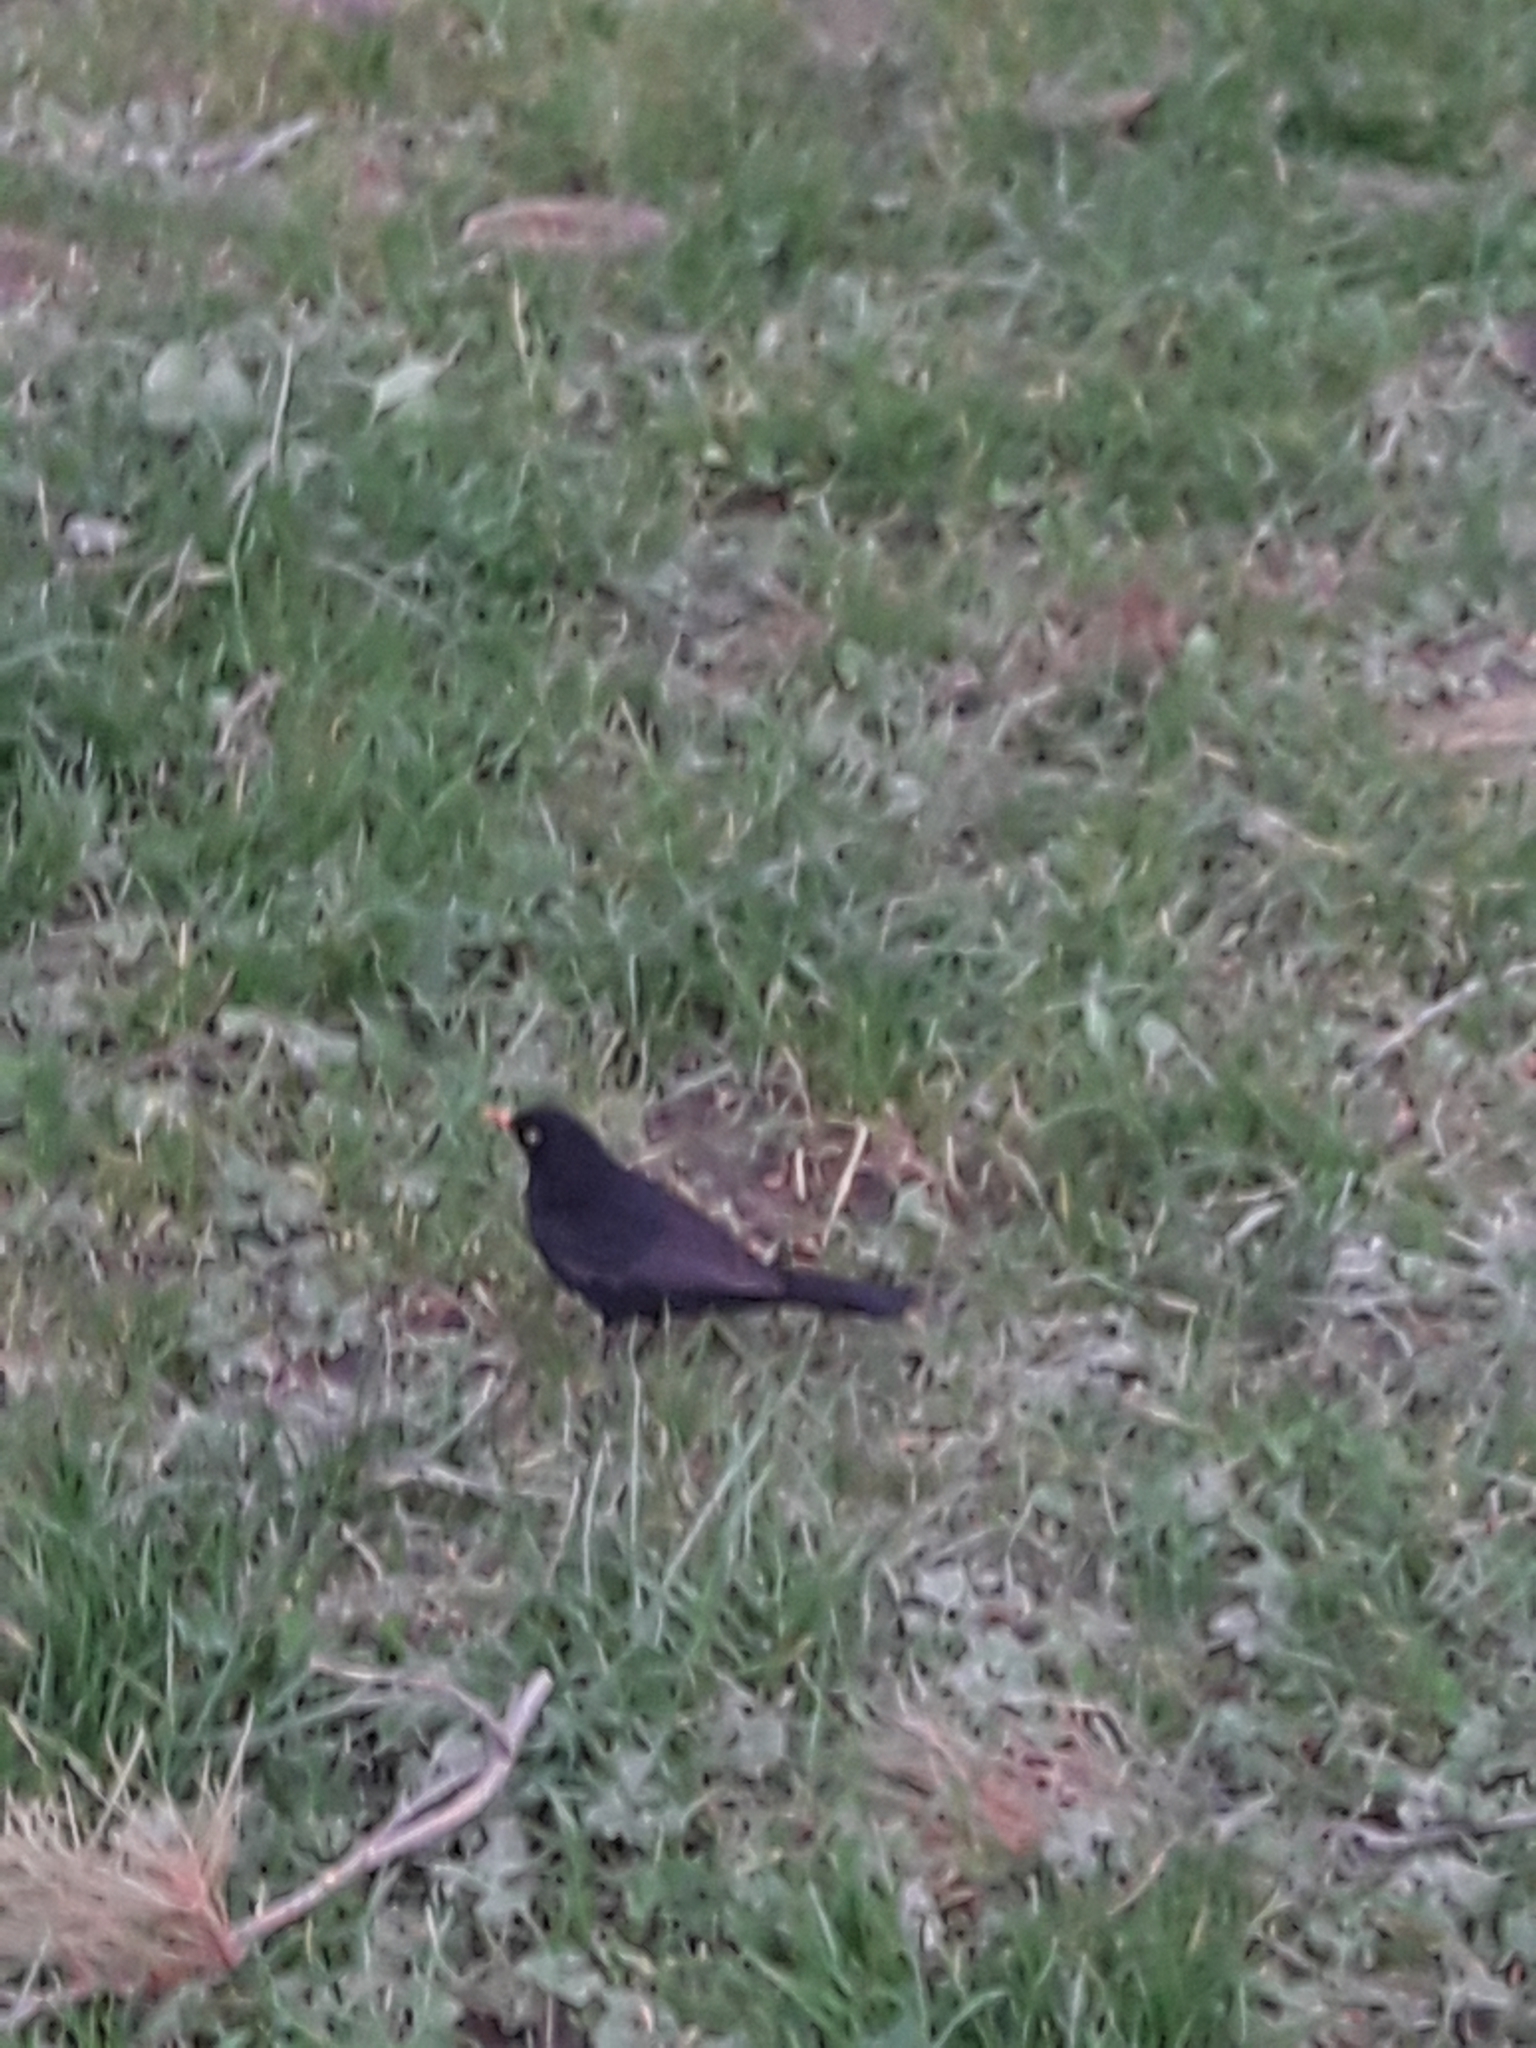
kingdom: Animalia
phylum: Chordata
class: Aves
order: Passeriformes
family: Turdidae
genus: Turdus
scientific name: Turdus merula
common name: Common blackbird
